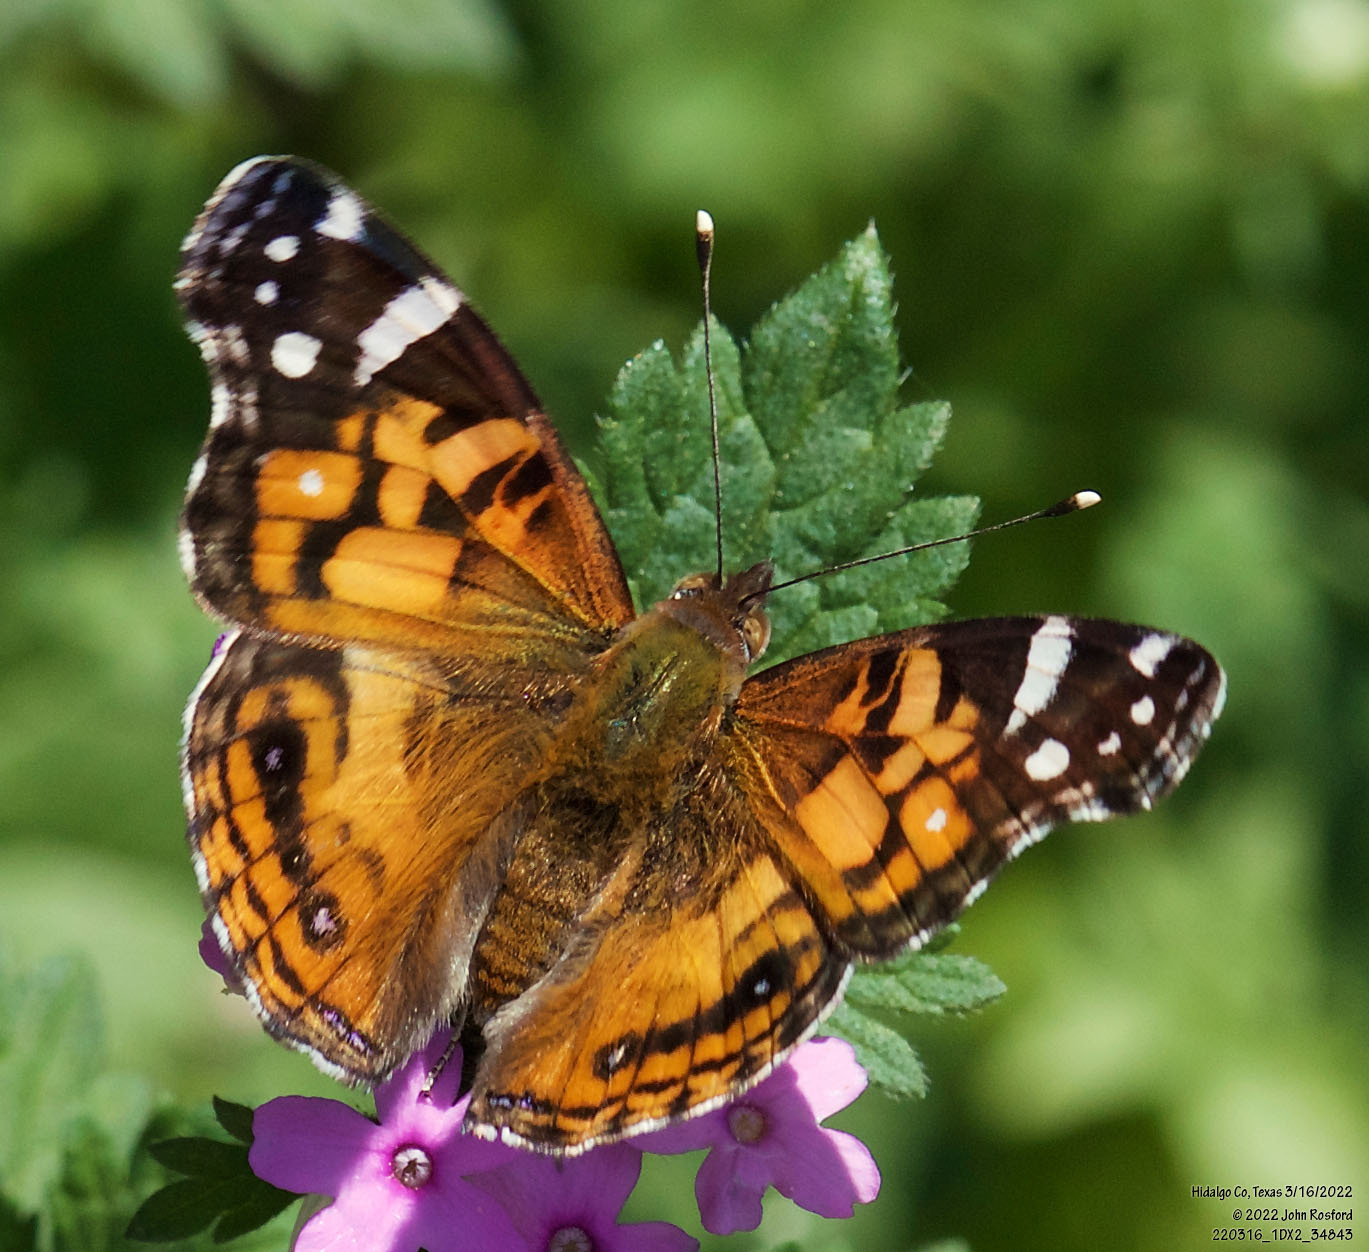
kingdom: Animalia
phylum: Arthropoda
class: Insecta
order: Lepidoptera
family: Nymphalidae
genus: Vanessa
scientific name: Vanessa virginiensis
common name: American lady
